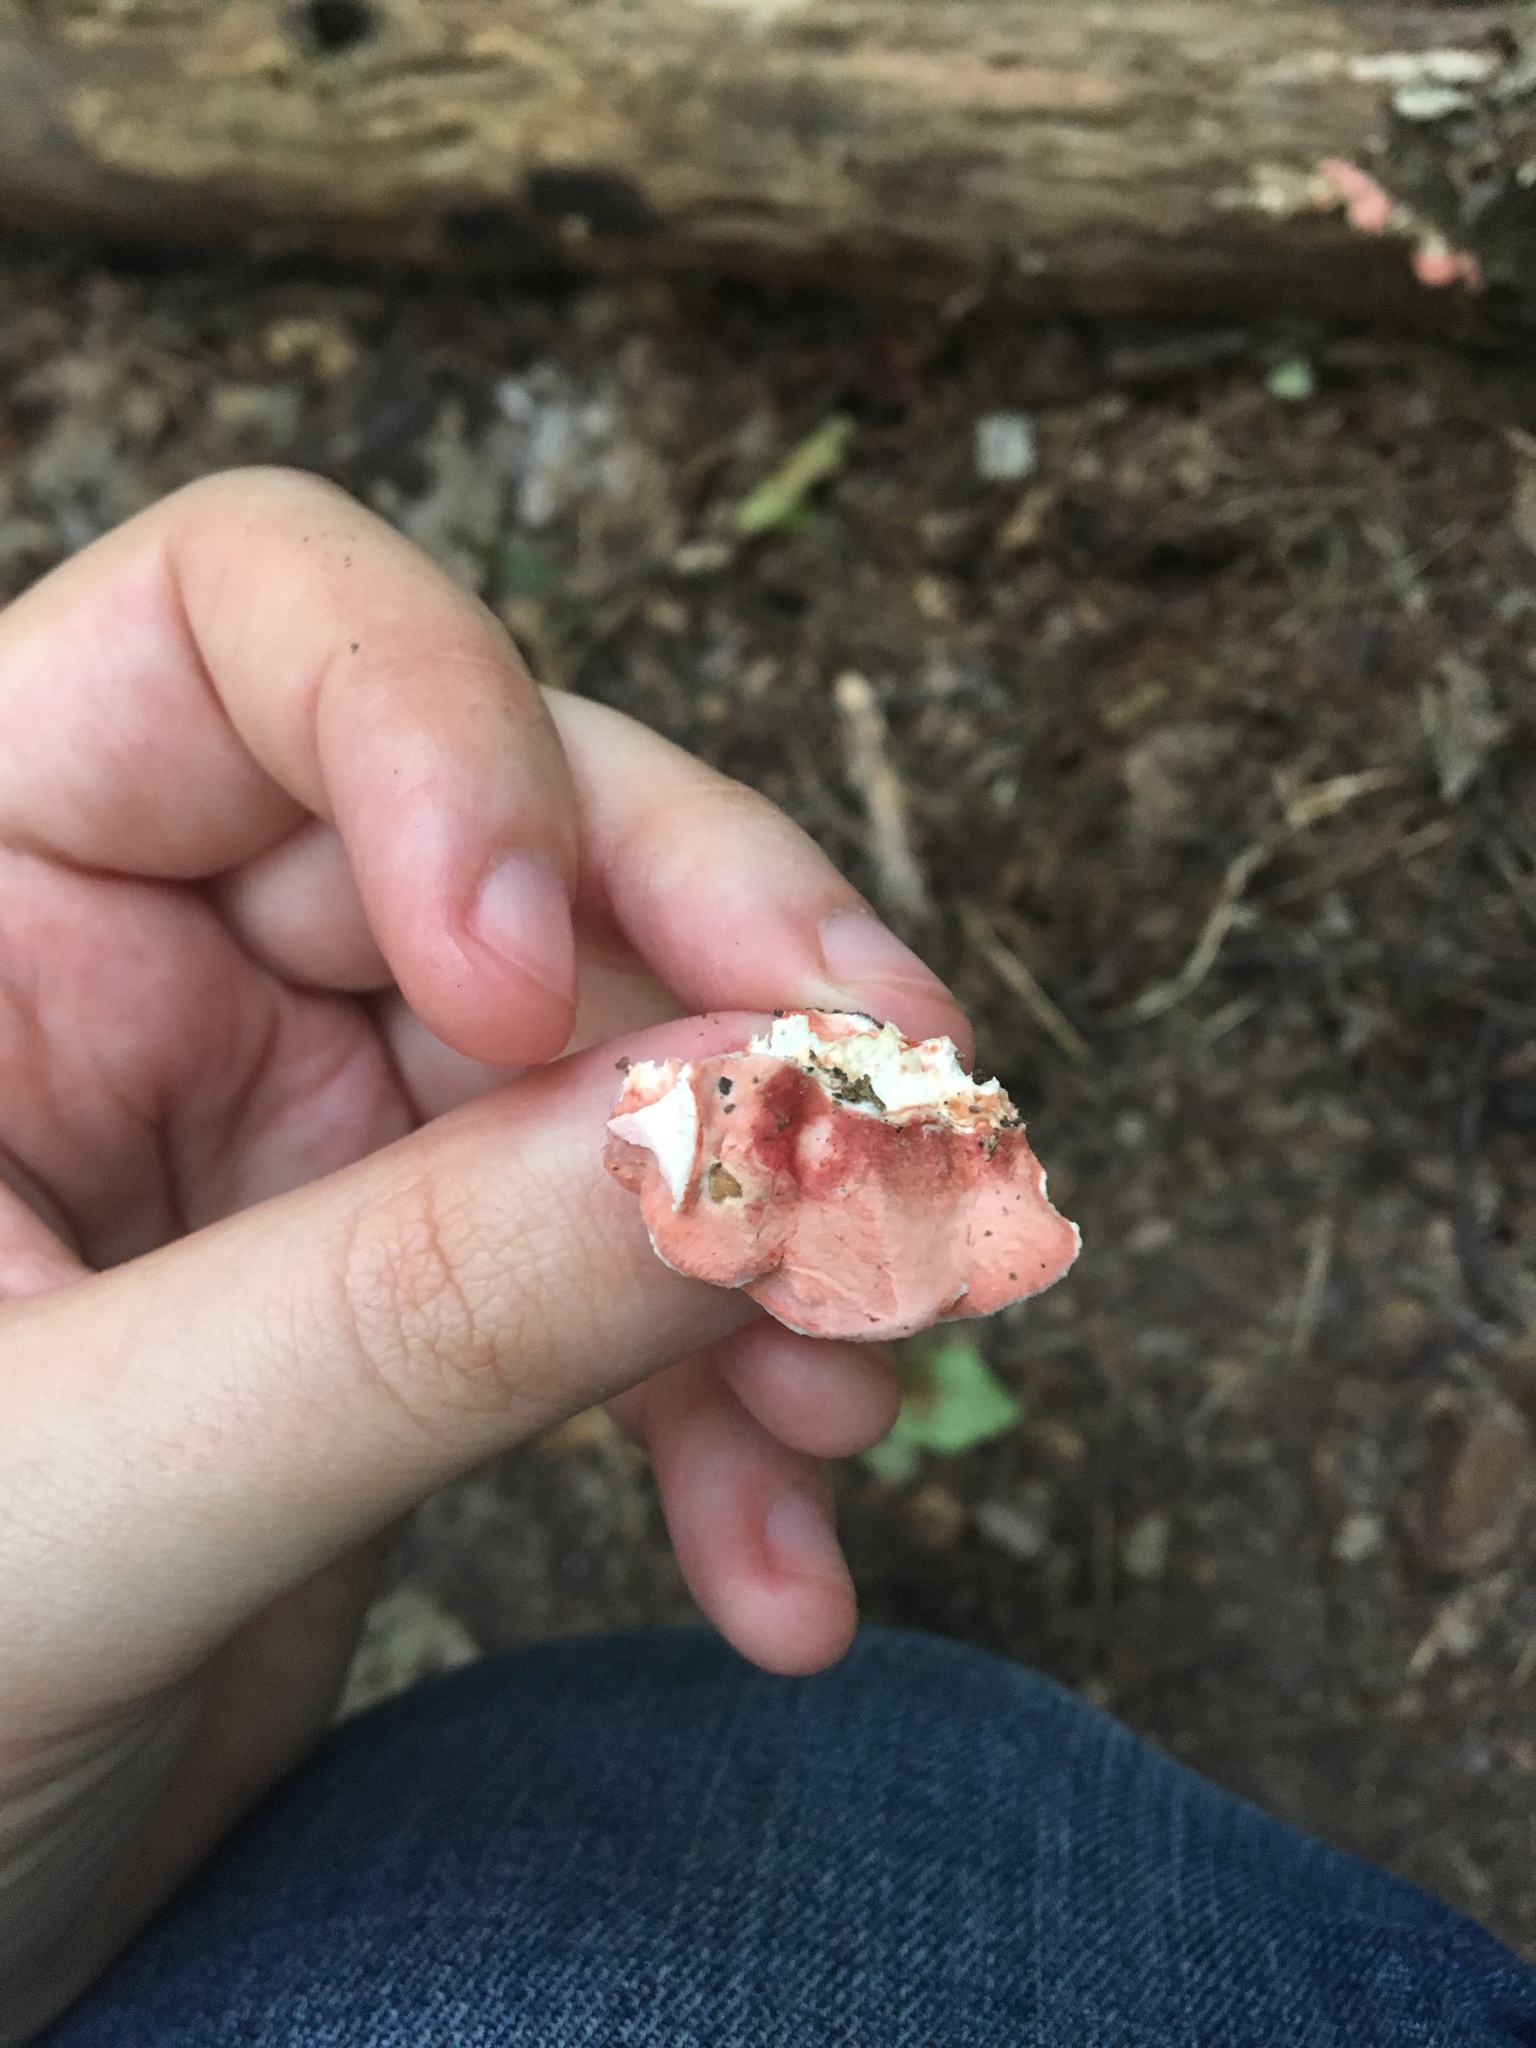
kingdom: Fungi
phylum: Basidiomycota
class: Agaricomycetes
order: Polyporales
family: Irpicaceae
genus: Byssomerulius
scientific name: Byssomerulius incarnatus
